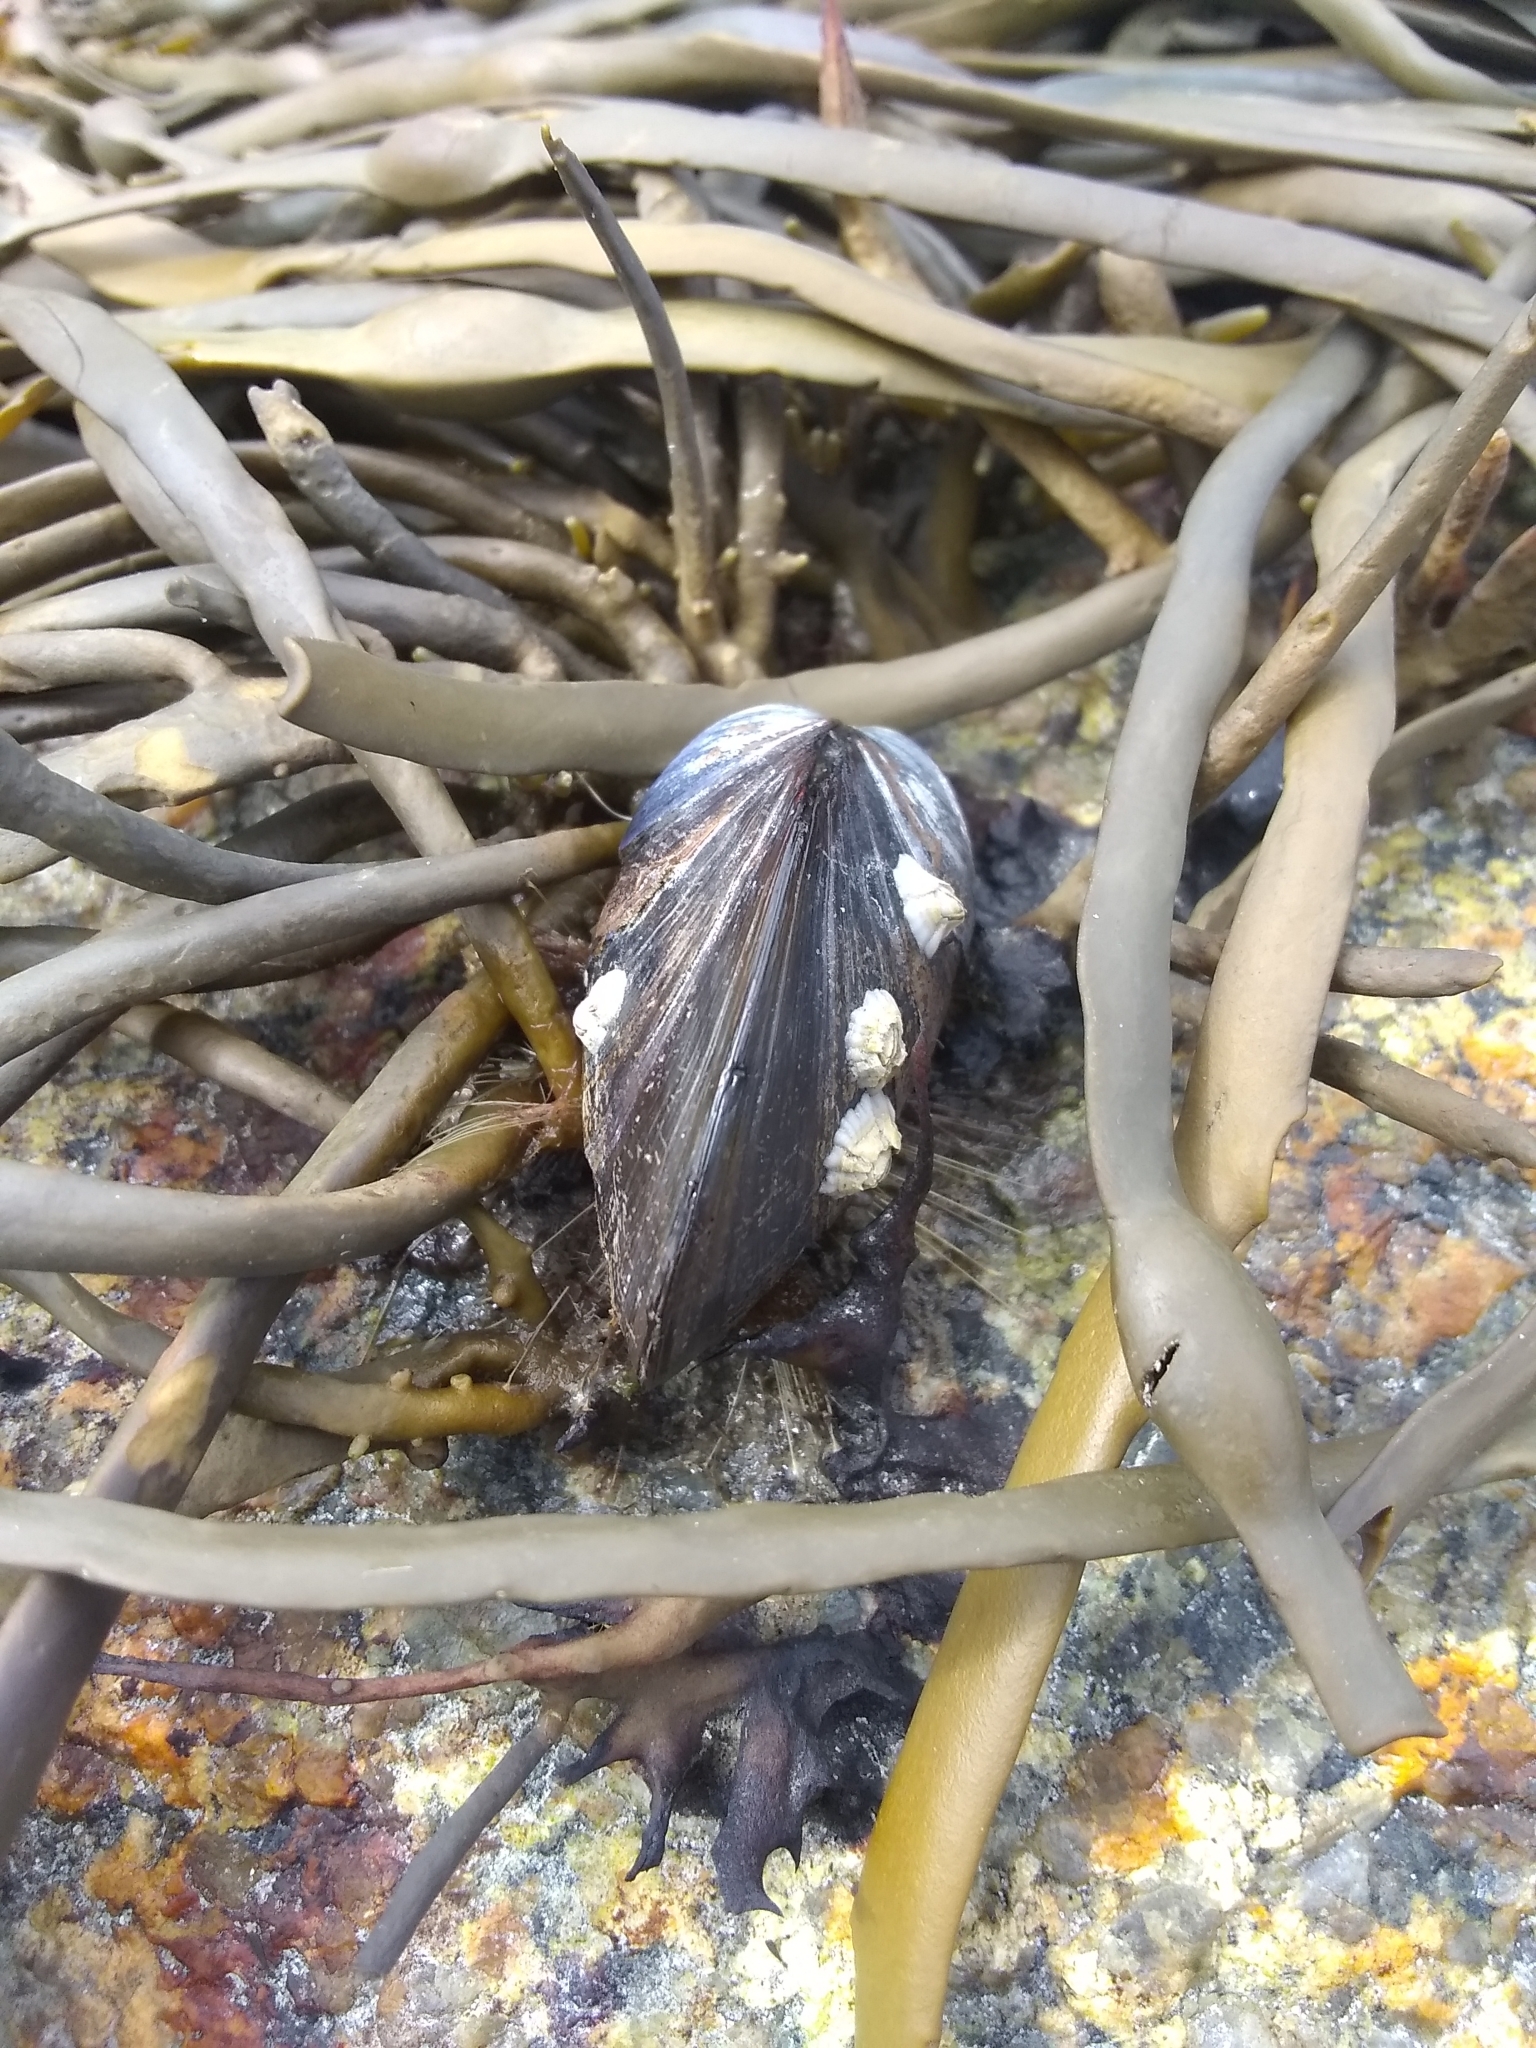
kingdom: Animalia
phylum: Mollusca
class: Bivalvia
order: Mytilida
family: Mytilidae
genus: Mytilus
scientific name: Mytilus edulis
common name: Blue mussel
